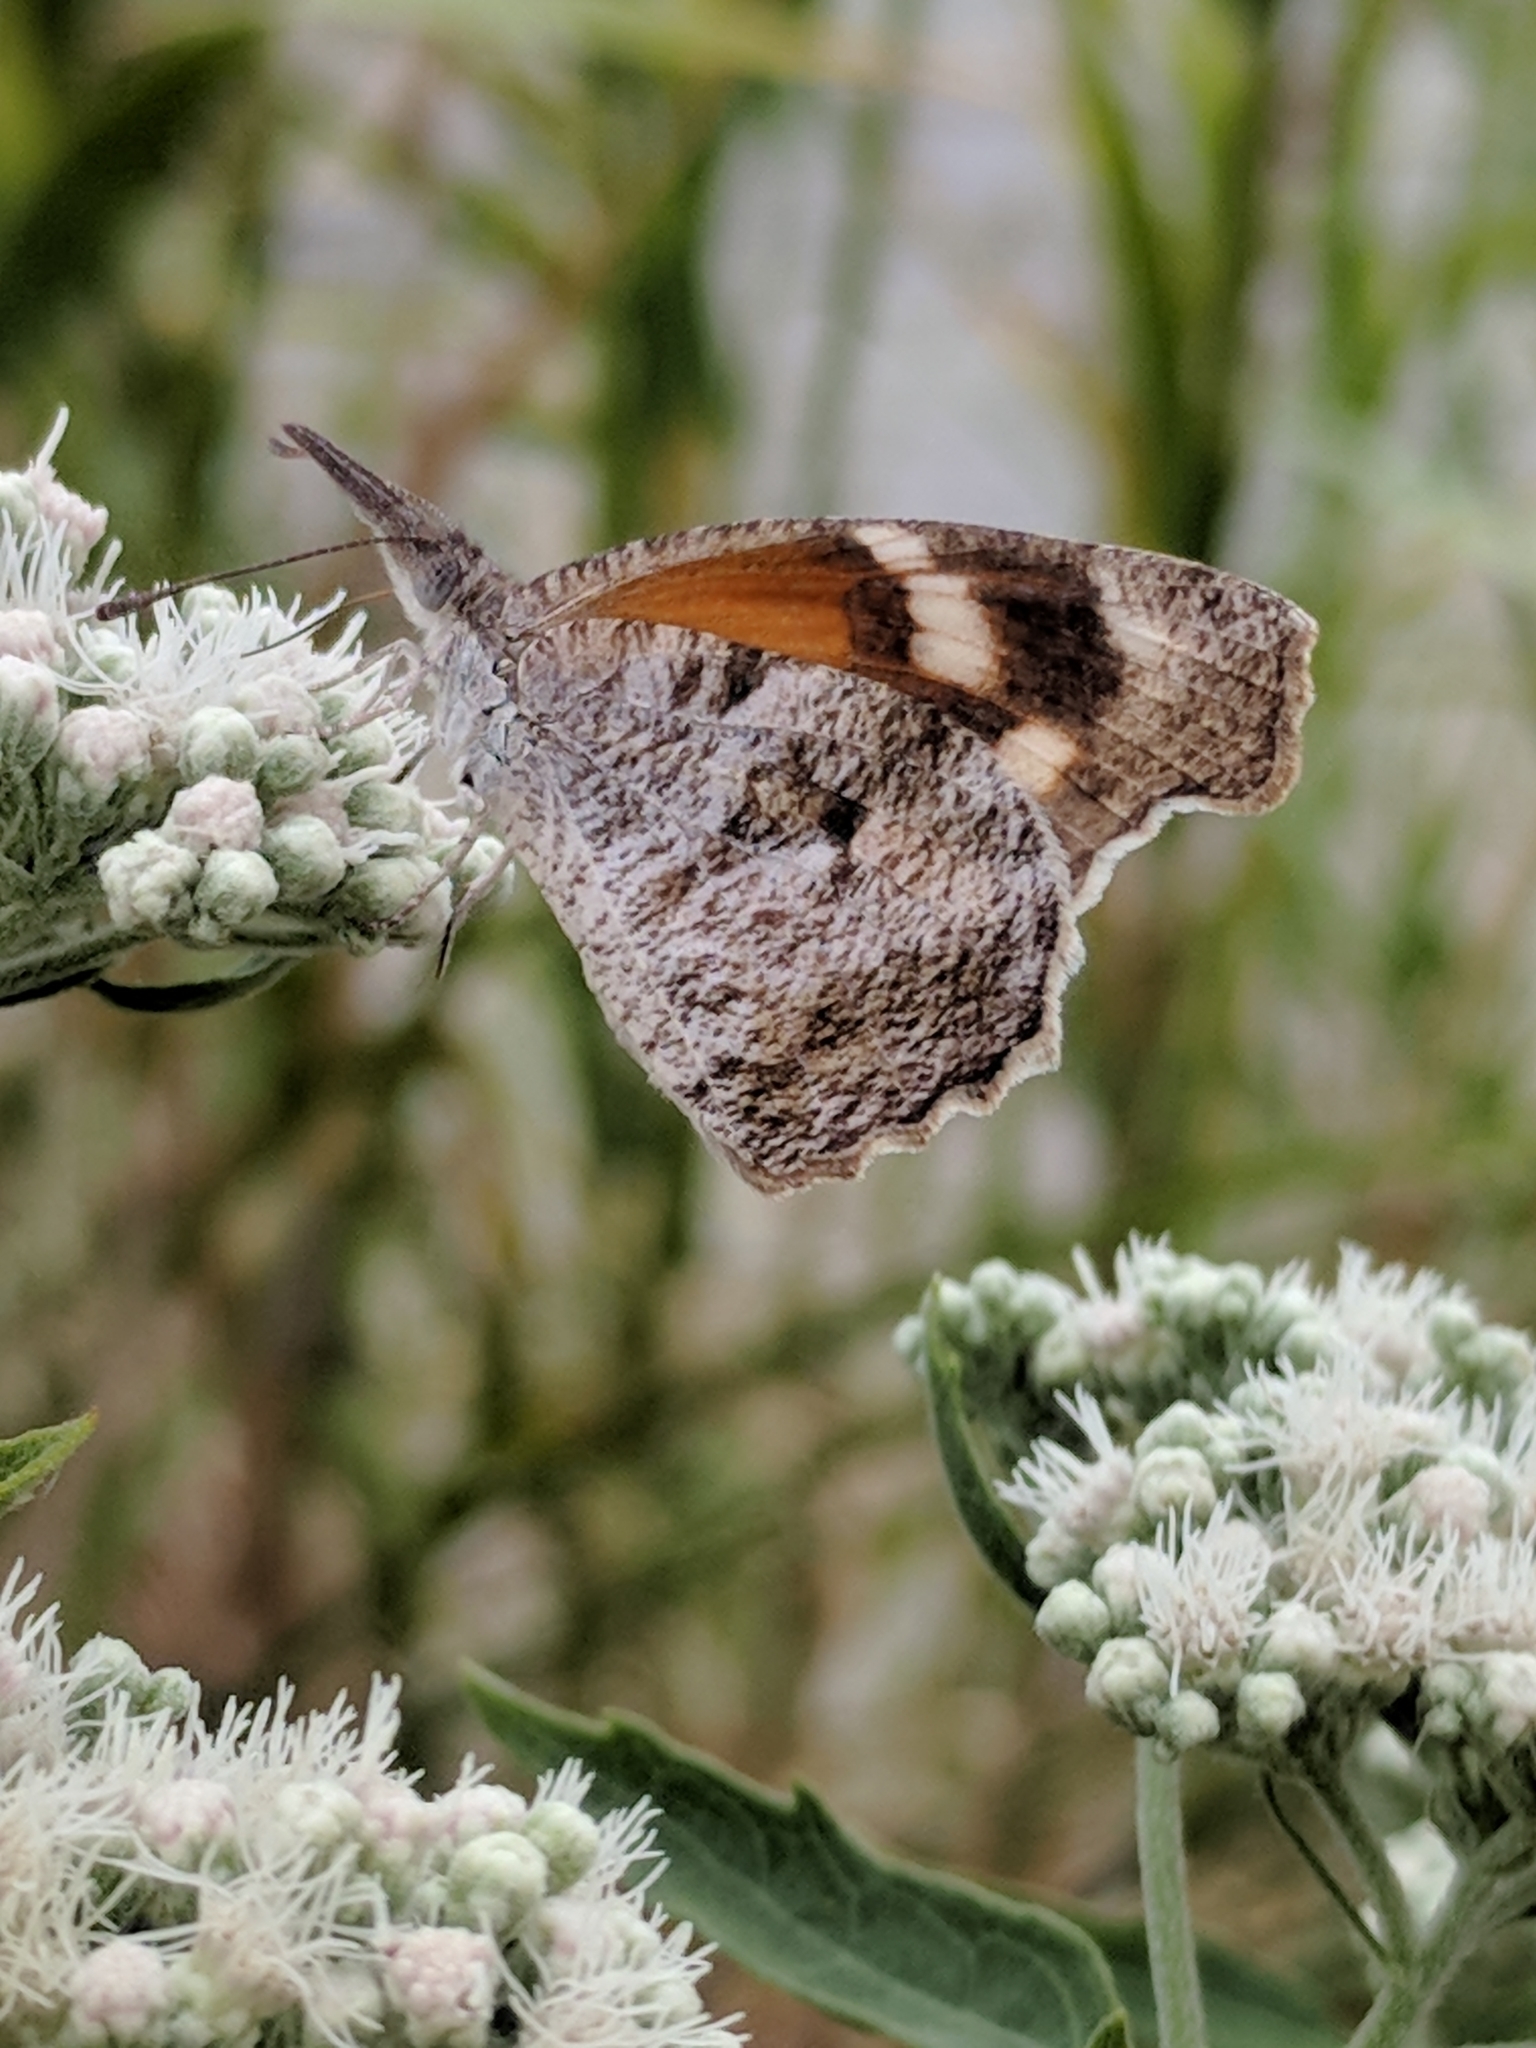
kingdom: Animalia
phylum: Arthropoda
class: Insecta
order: Lepidoptera
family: Nymphalidae
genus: Libytheana
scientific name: Libytheana carinenta
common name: American snout
